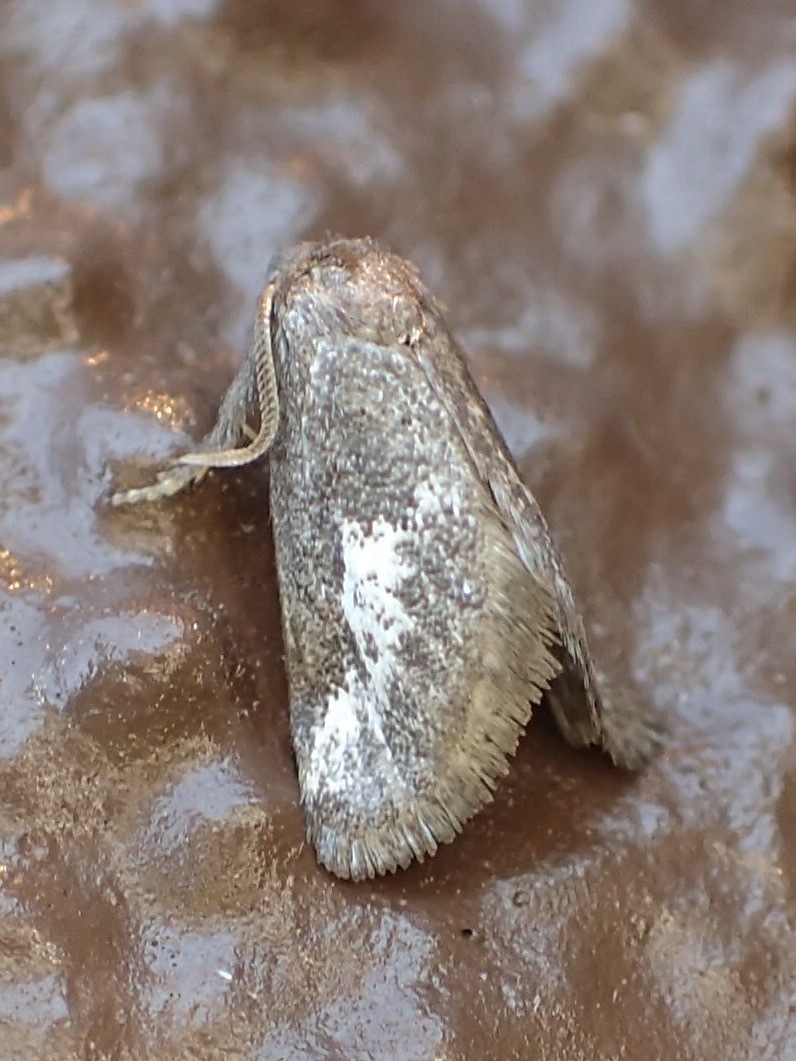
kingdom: Animalia
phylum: Arthropoda
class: Insecta
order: Lepidoptera
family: Limacodidae
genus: Cryptophobetron
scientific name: Cryptophobetron oropeso
